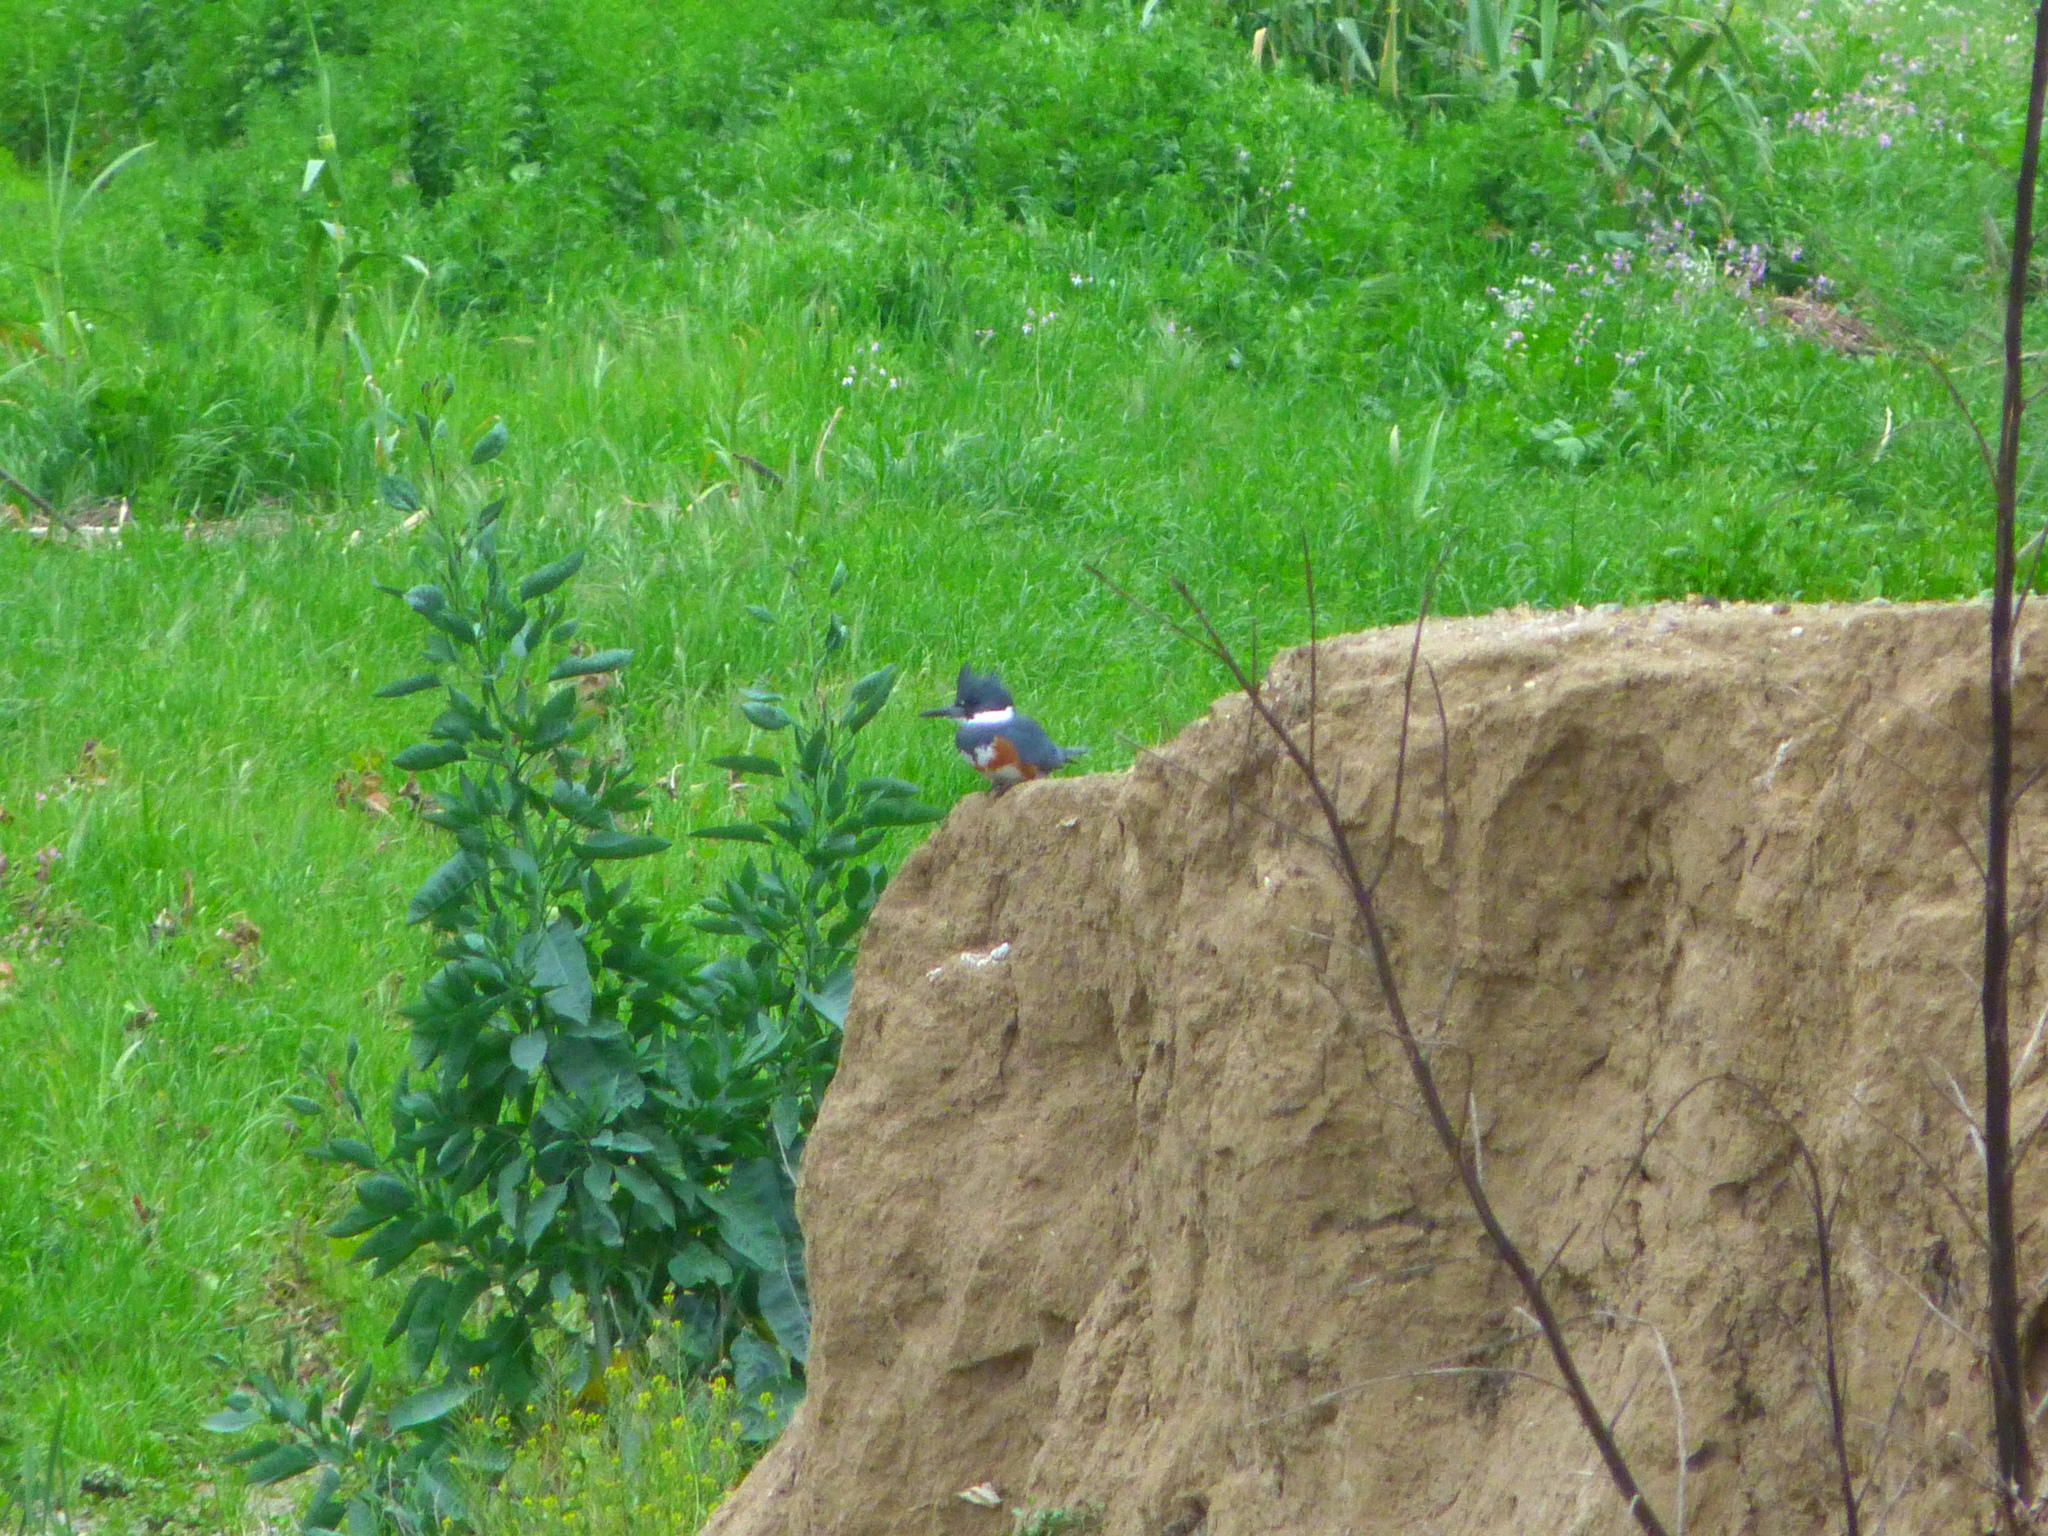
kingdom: Animalia
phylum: Chordata
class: Aves
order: Coraciiformes
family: Alcedinidae
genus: Megaceryle
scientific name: Megaceryle alcyon
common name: Belted kingfisher
